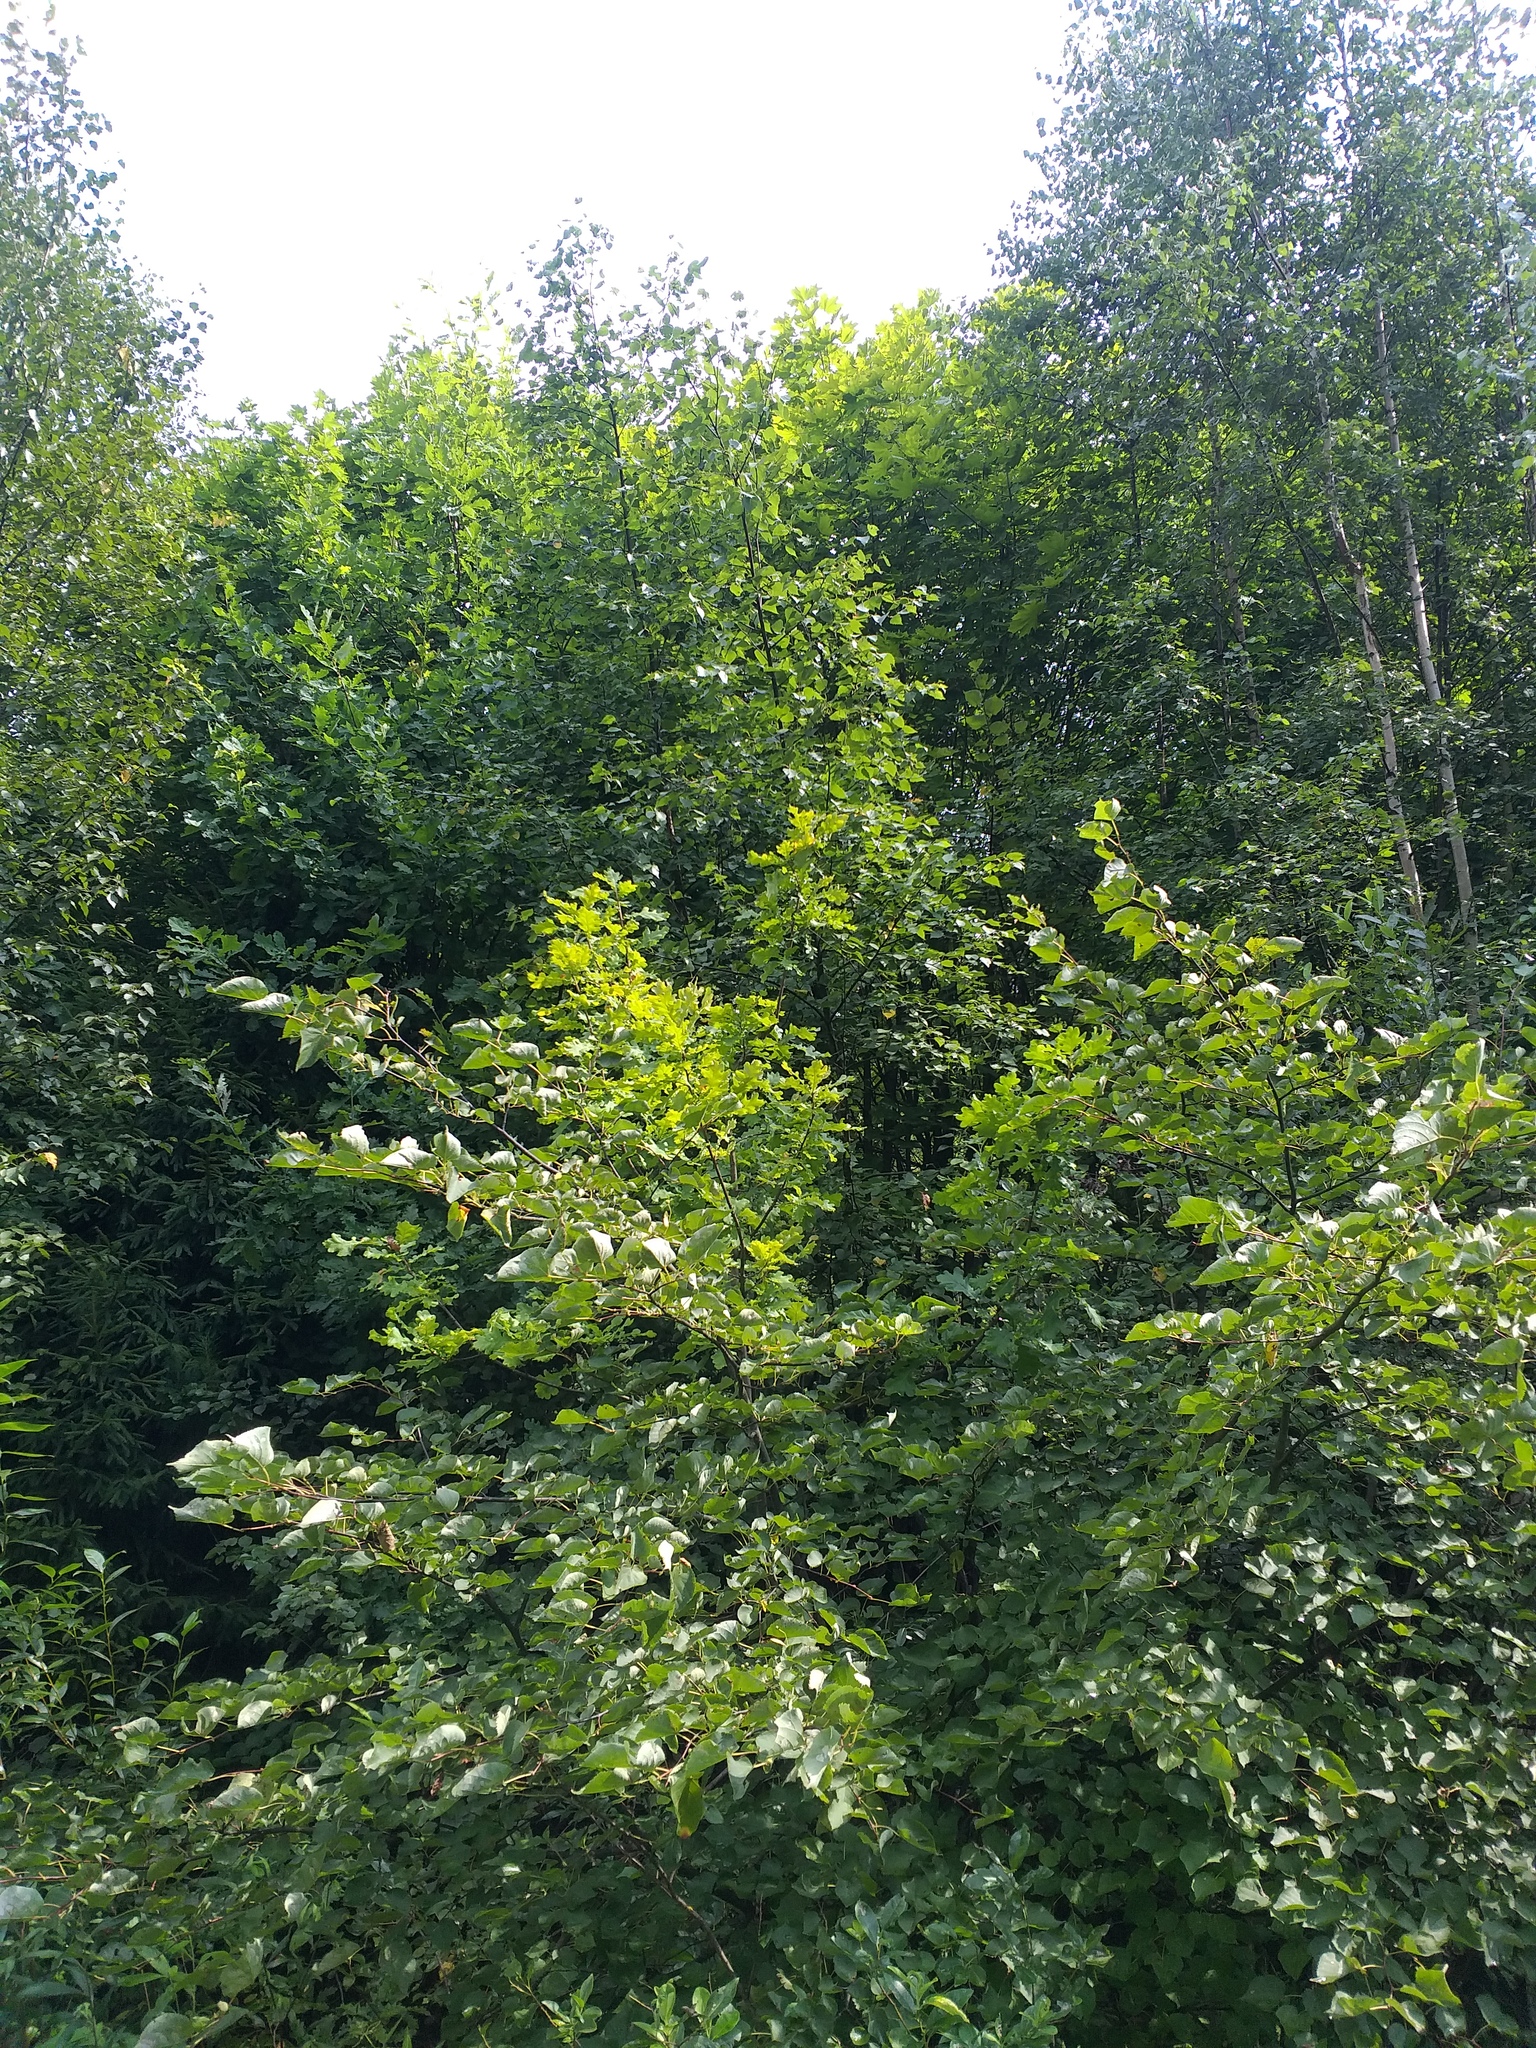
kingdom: Plantae
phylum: Tracheophyta
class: Magnoliopsida
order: Malvales
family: Malvaceae
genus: Tilia
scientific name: Tilia cordata
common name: Small-leaved lime
